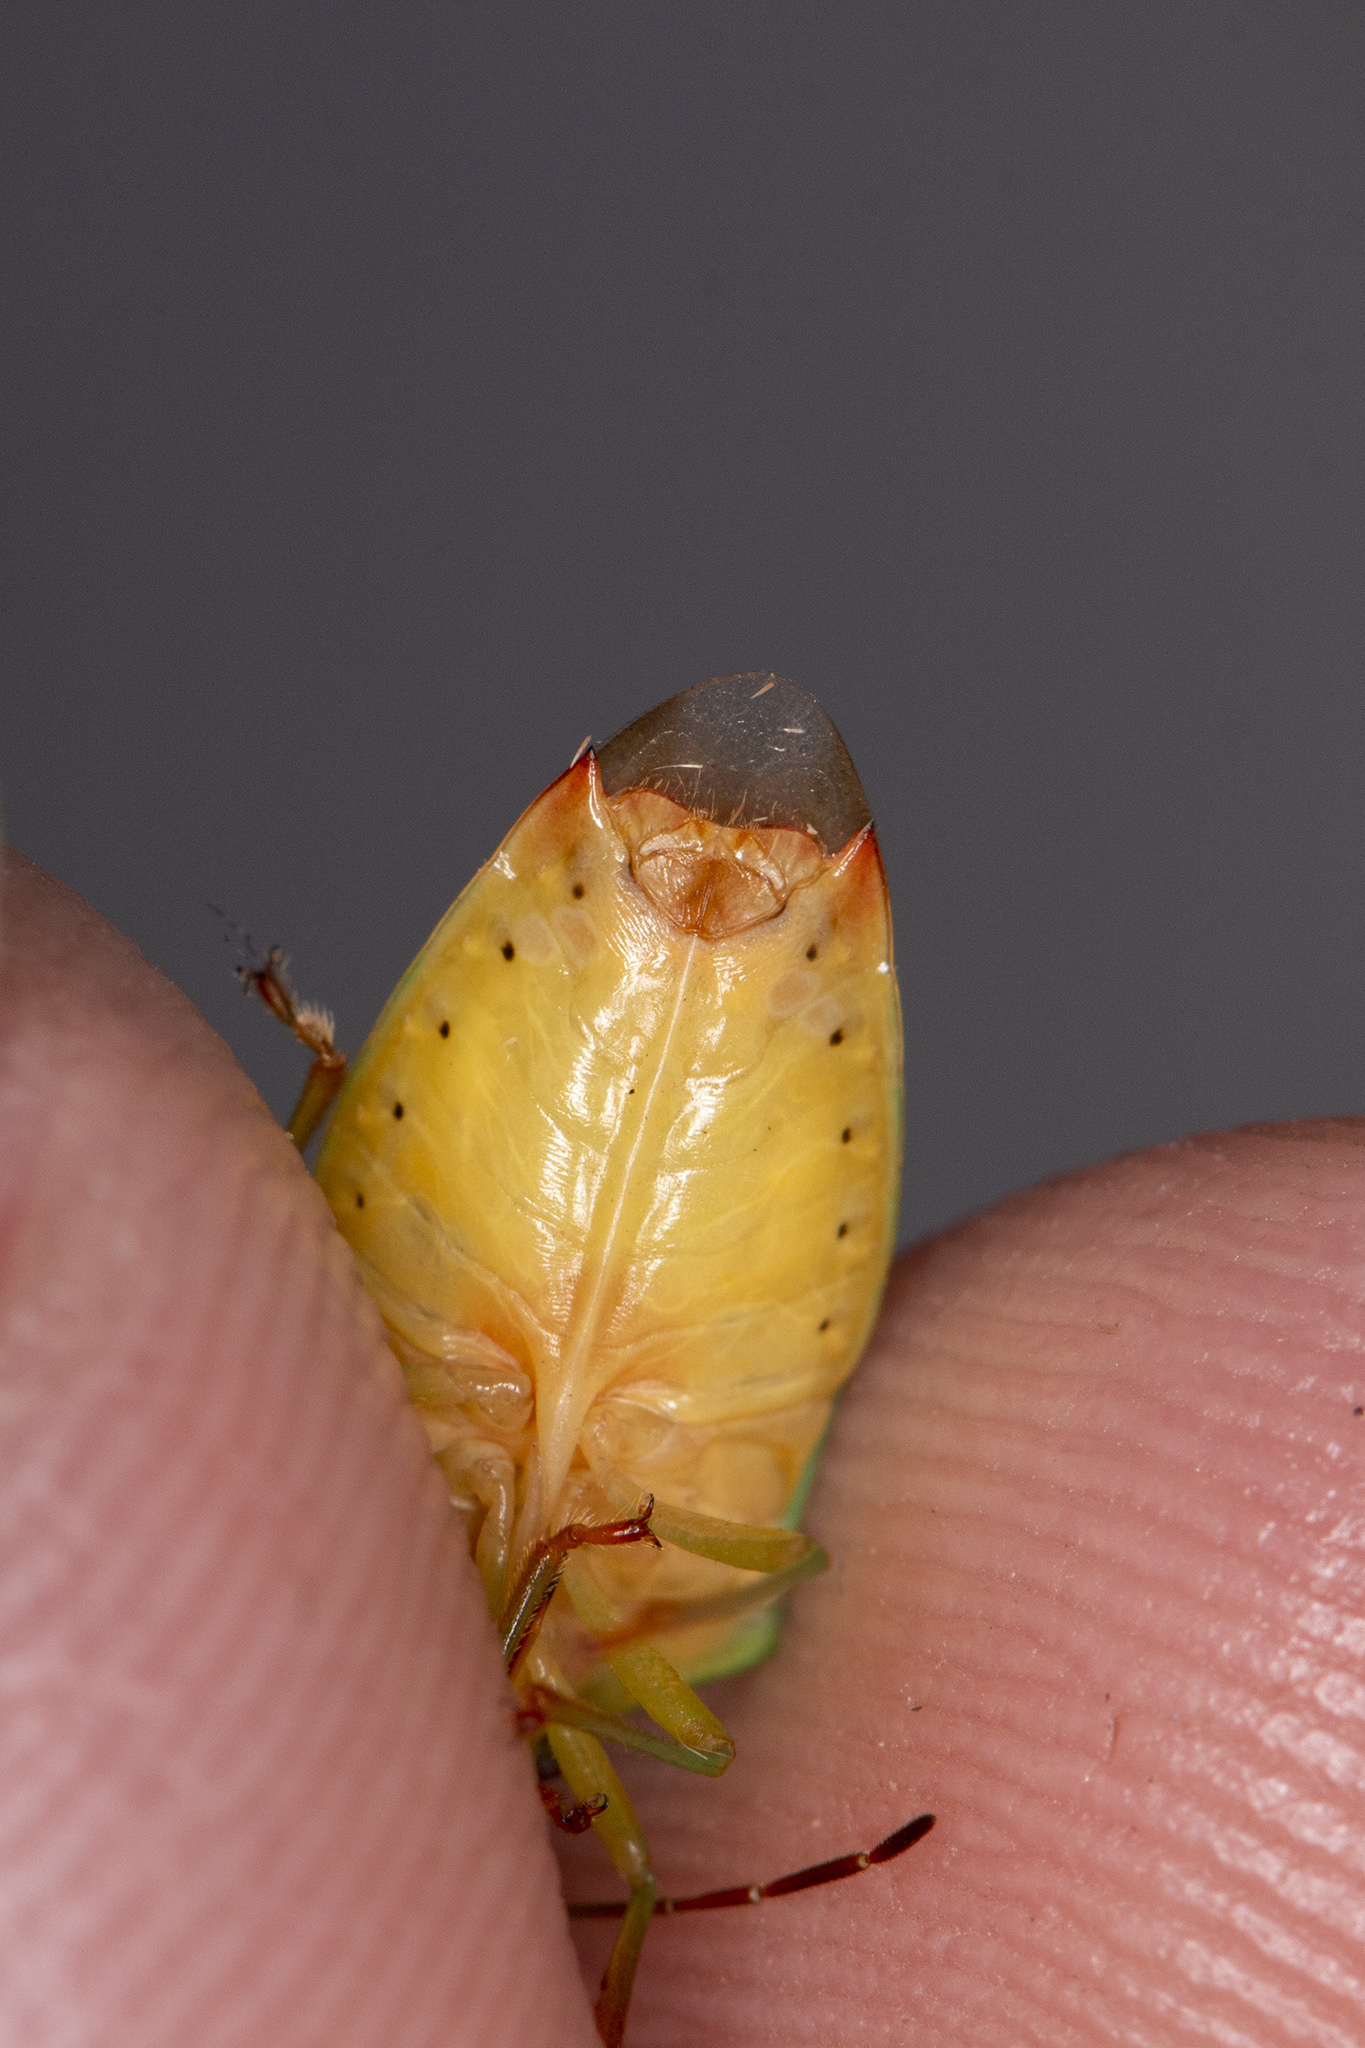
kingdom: Animalia
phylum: Arthropoda
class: Insecta
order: Hemiptera
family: Acanthosomatidae
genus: Elasmostethus
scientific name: Elasmostethus interstinctus
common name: Birch shieldbug
